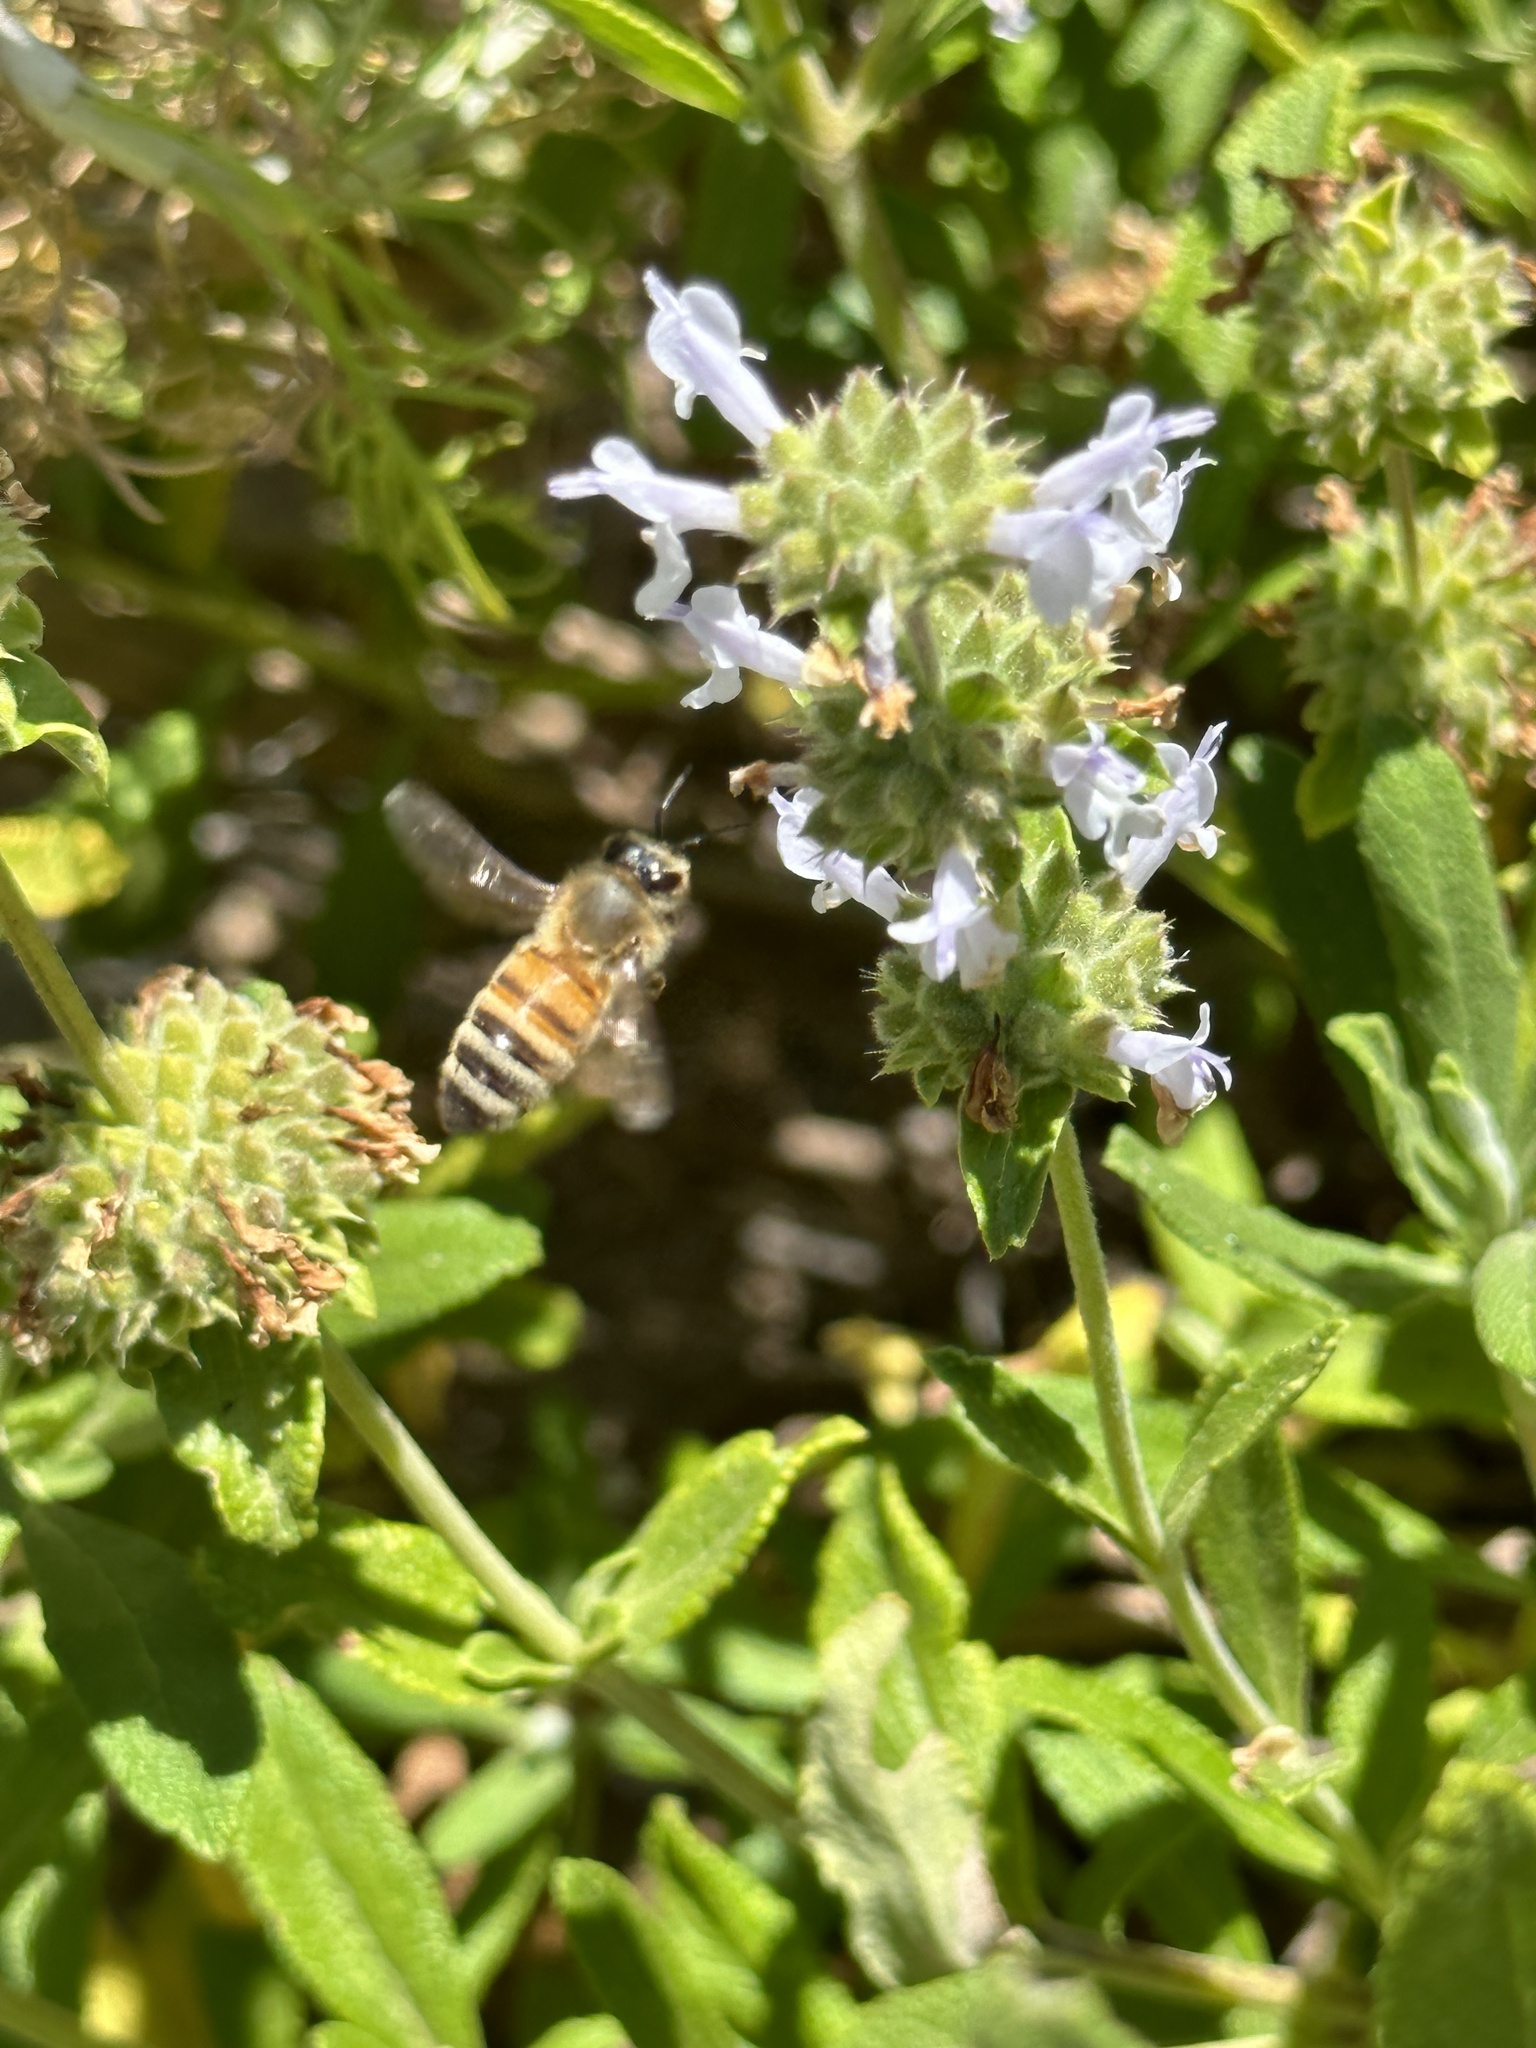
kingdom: Animalia
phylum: Arthropoda
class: Insecta
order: Hymenoptera
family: Apidae
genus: Apis
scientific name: Apis mellifera
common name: Honey bee
